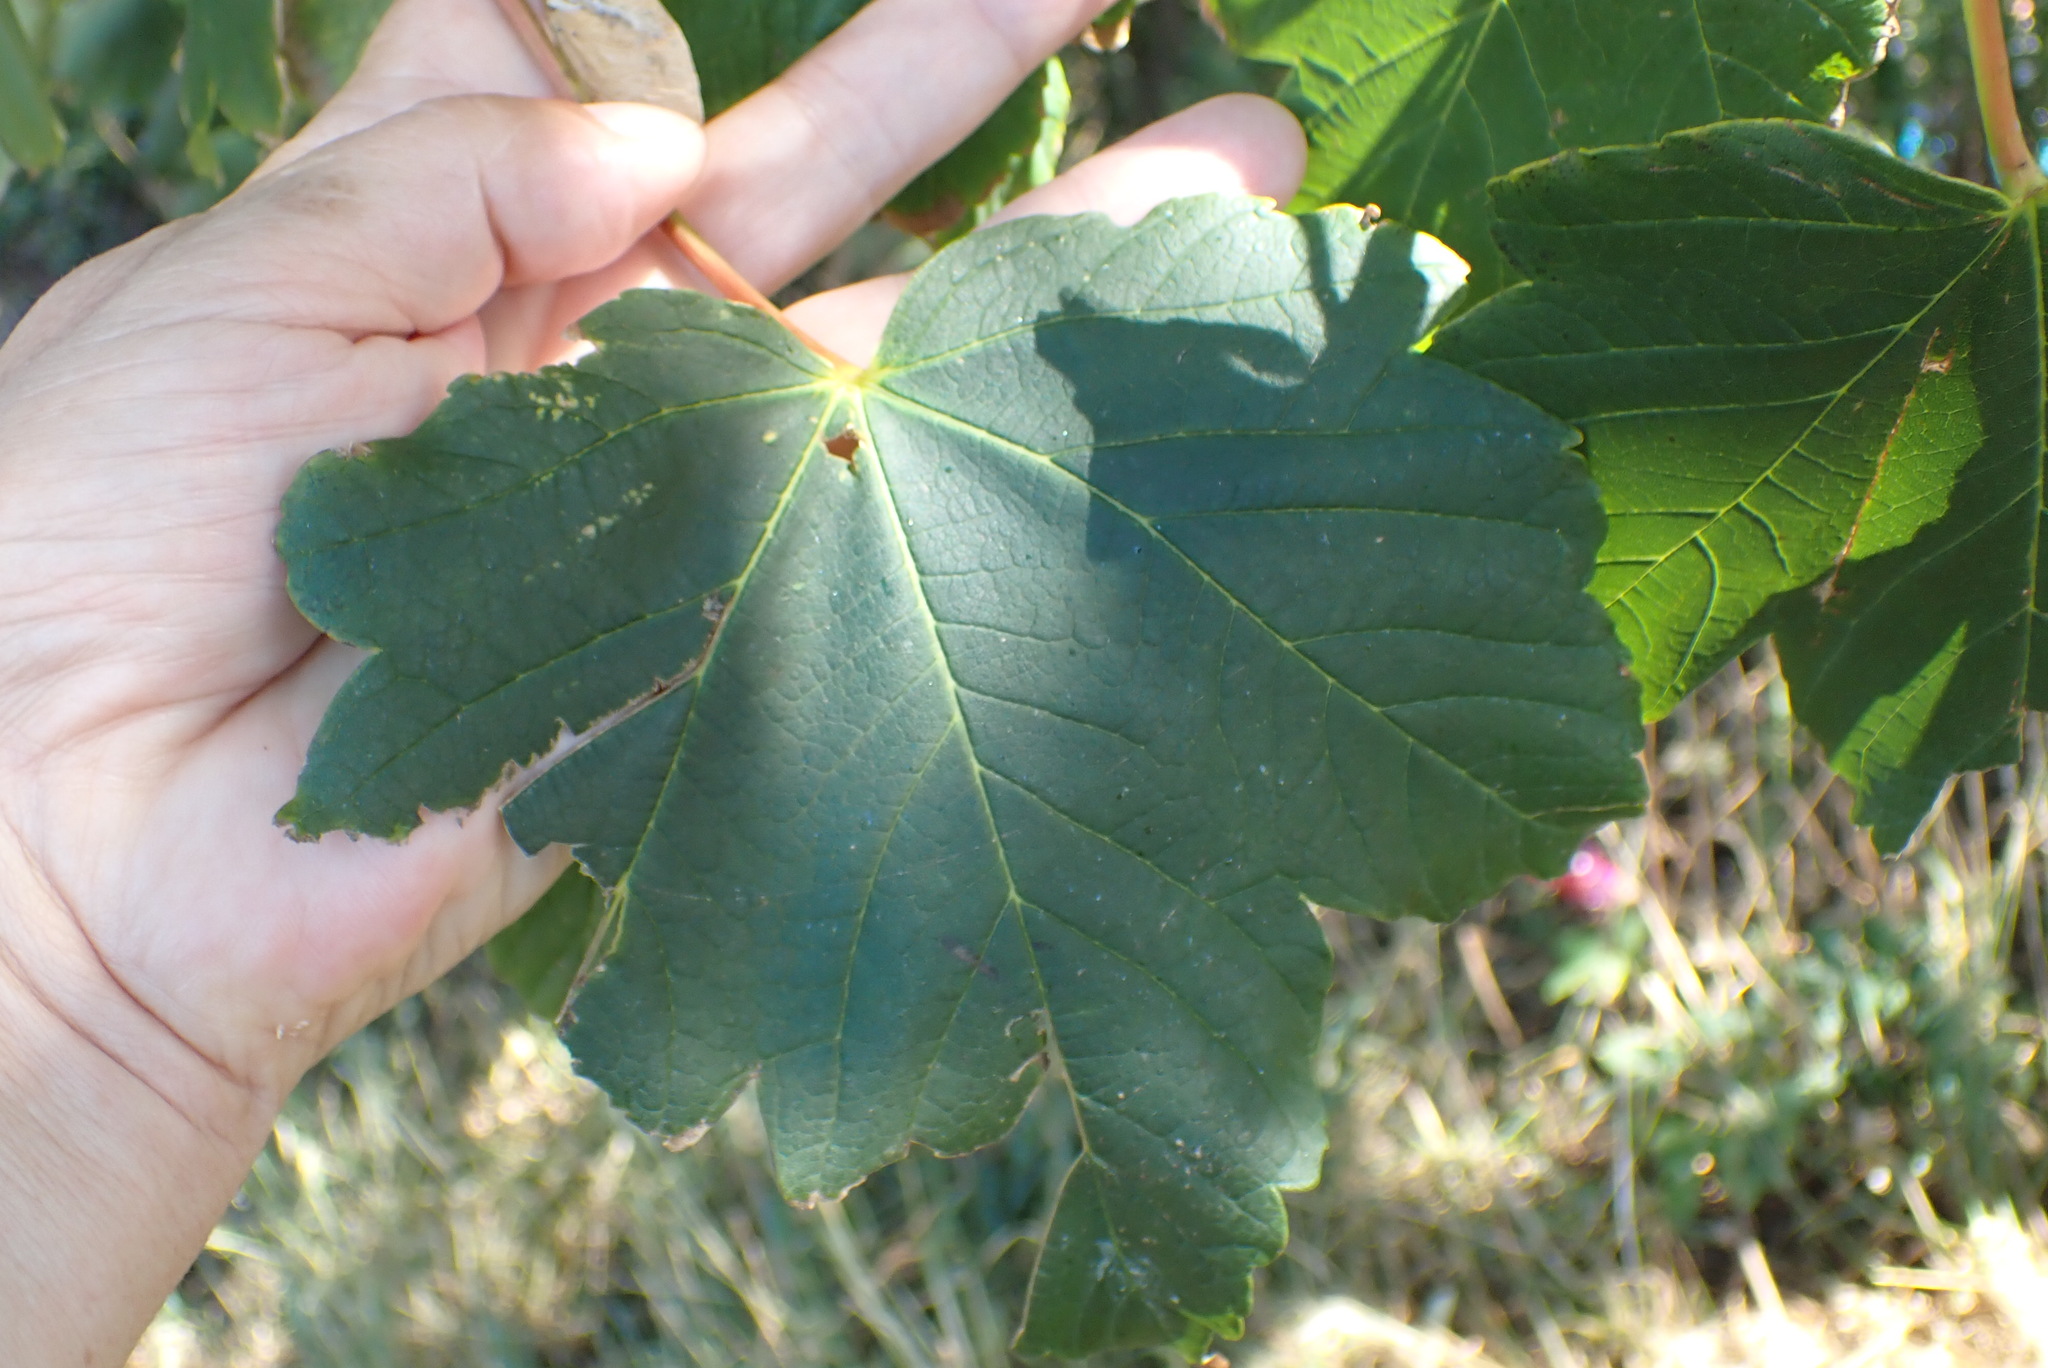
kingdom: Plantae
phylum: Tracheophyta
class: Magnoliopsida
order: Sapindales
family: Sapindaceae
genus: Acer
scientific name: Acer pseudoplatanus
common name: Sycamore
